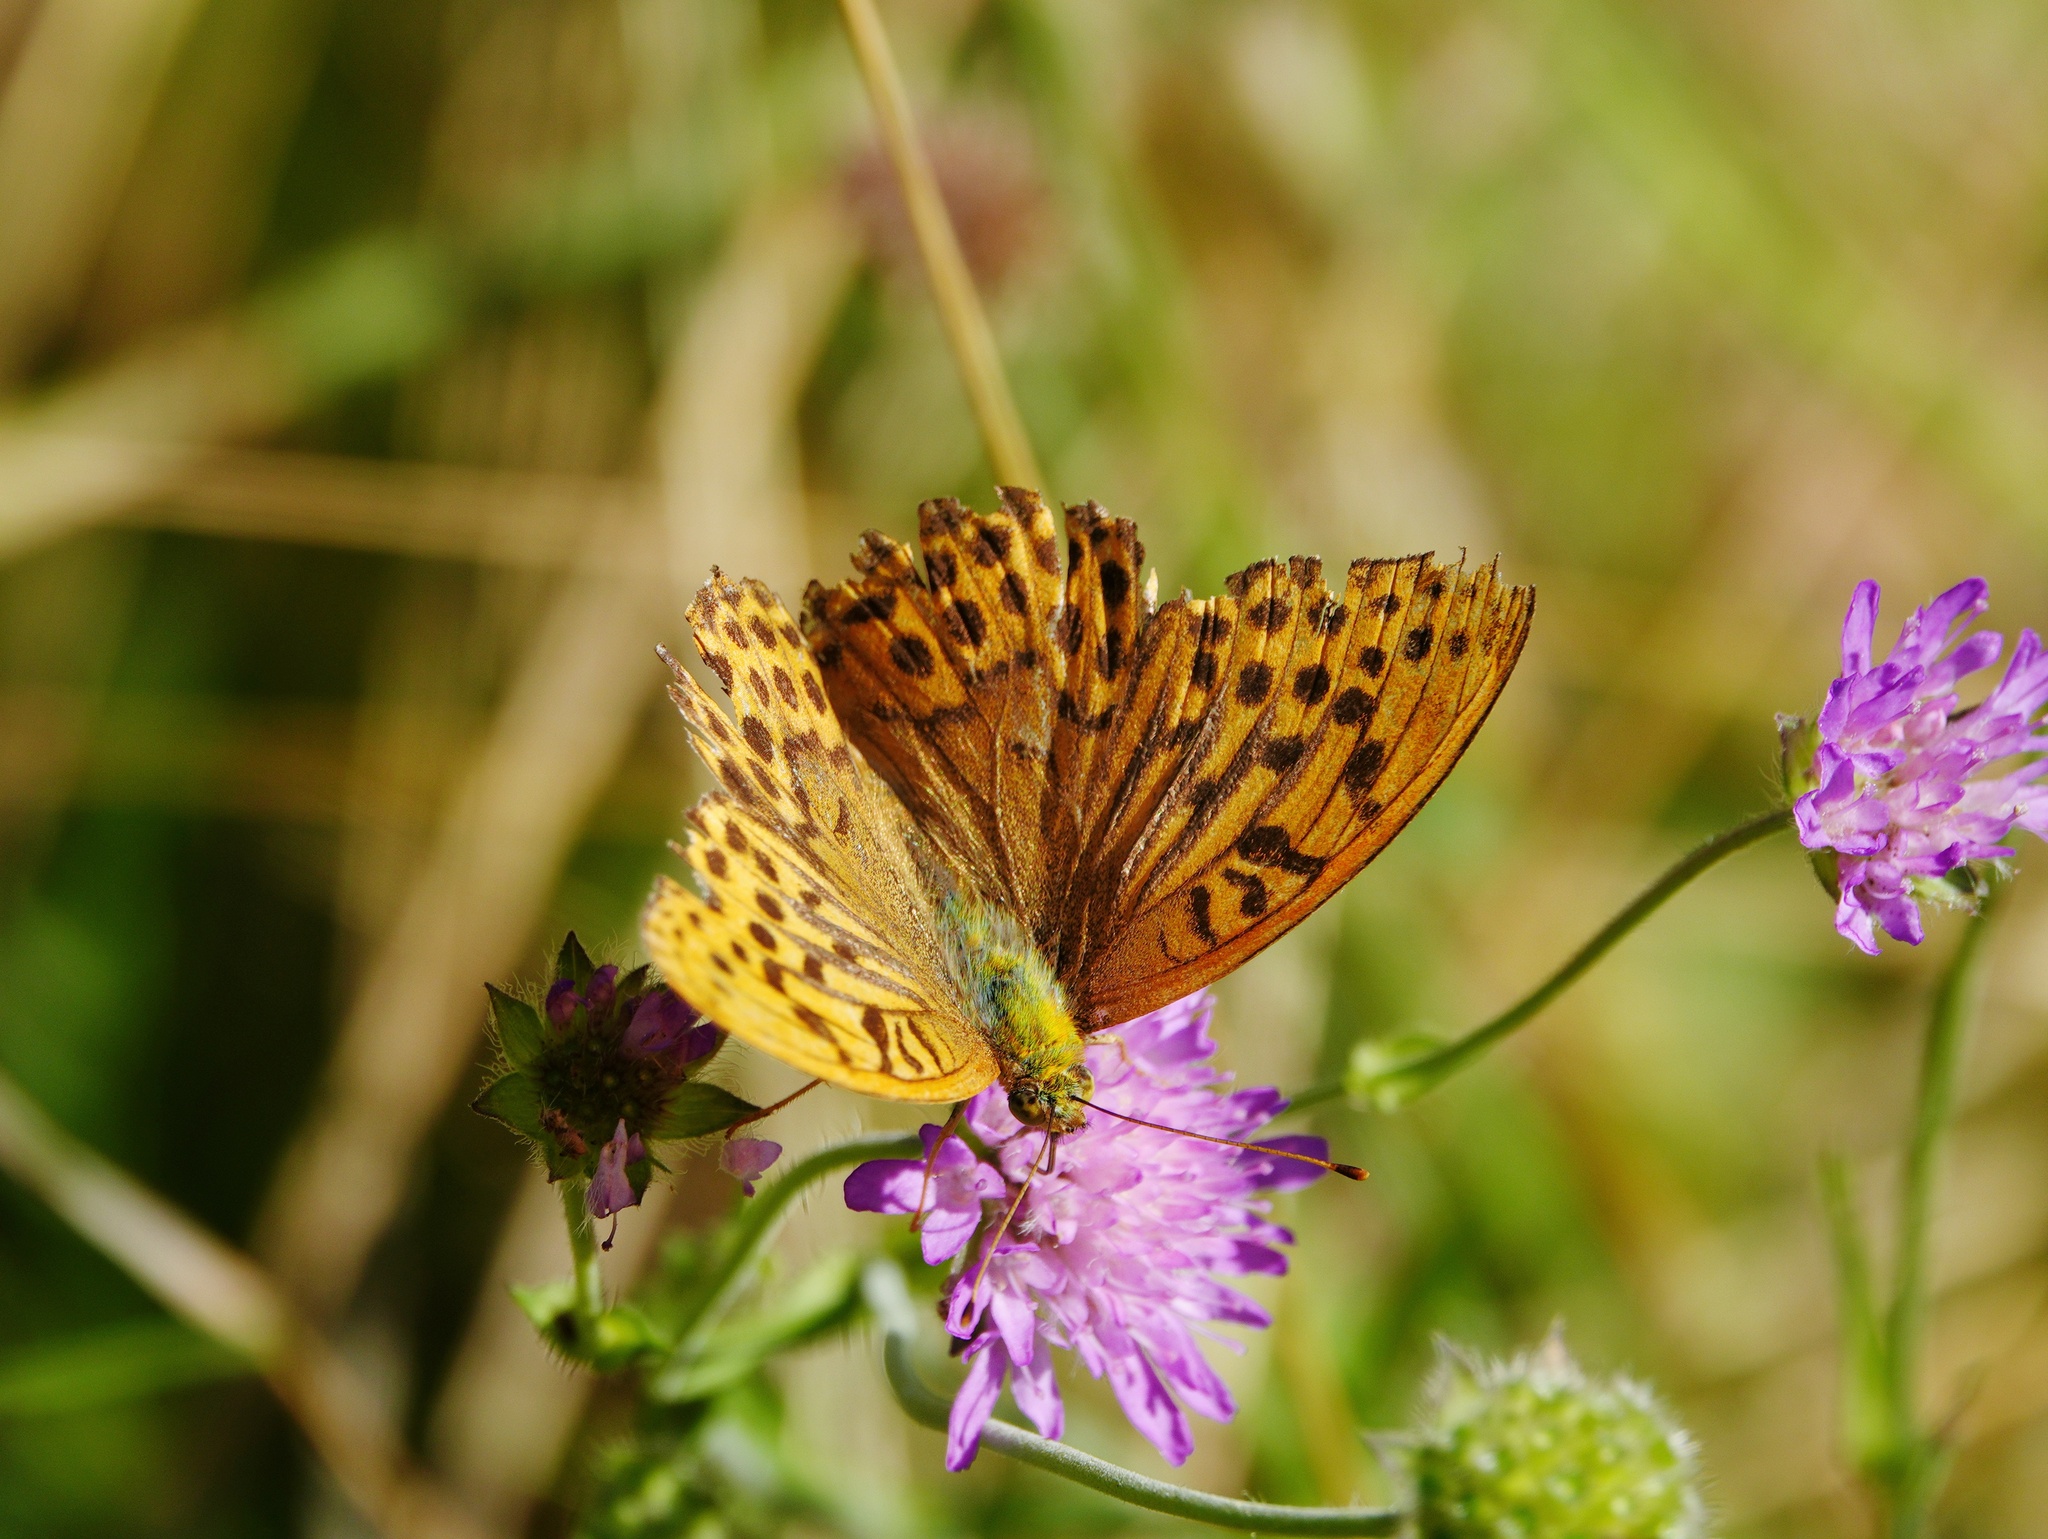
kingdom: Animalia
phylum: Arthropoda
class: Insecta
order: Lepidoptera
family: Nymphalidae
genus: Argynnis
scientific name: Argynnis paphia
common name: Silver-washed fritillary
